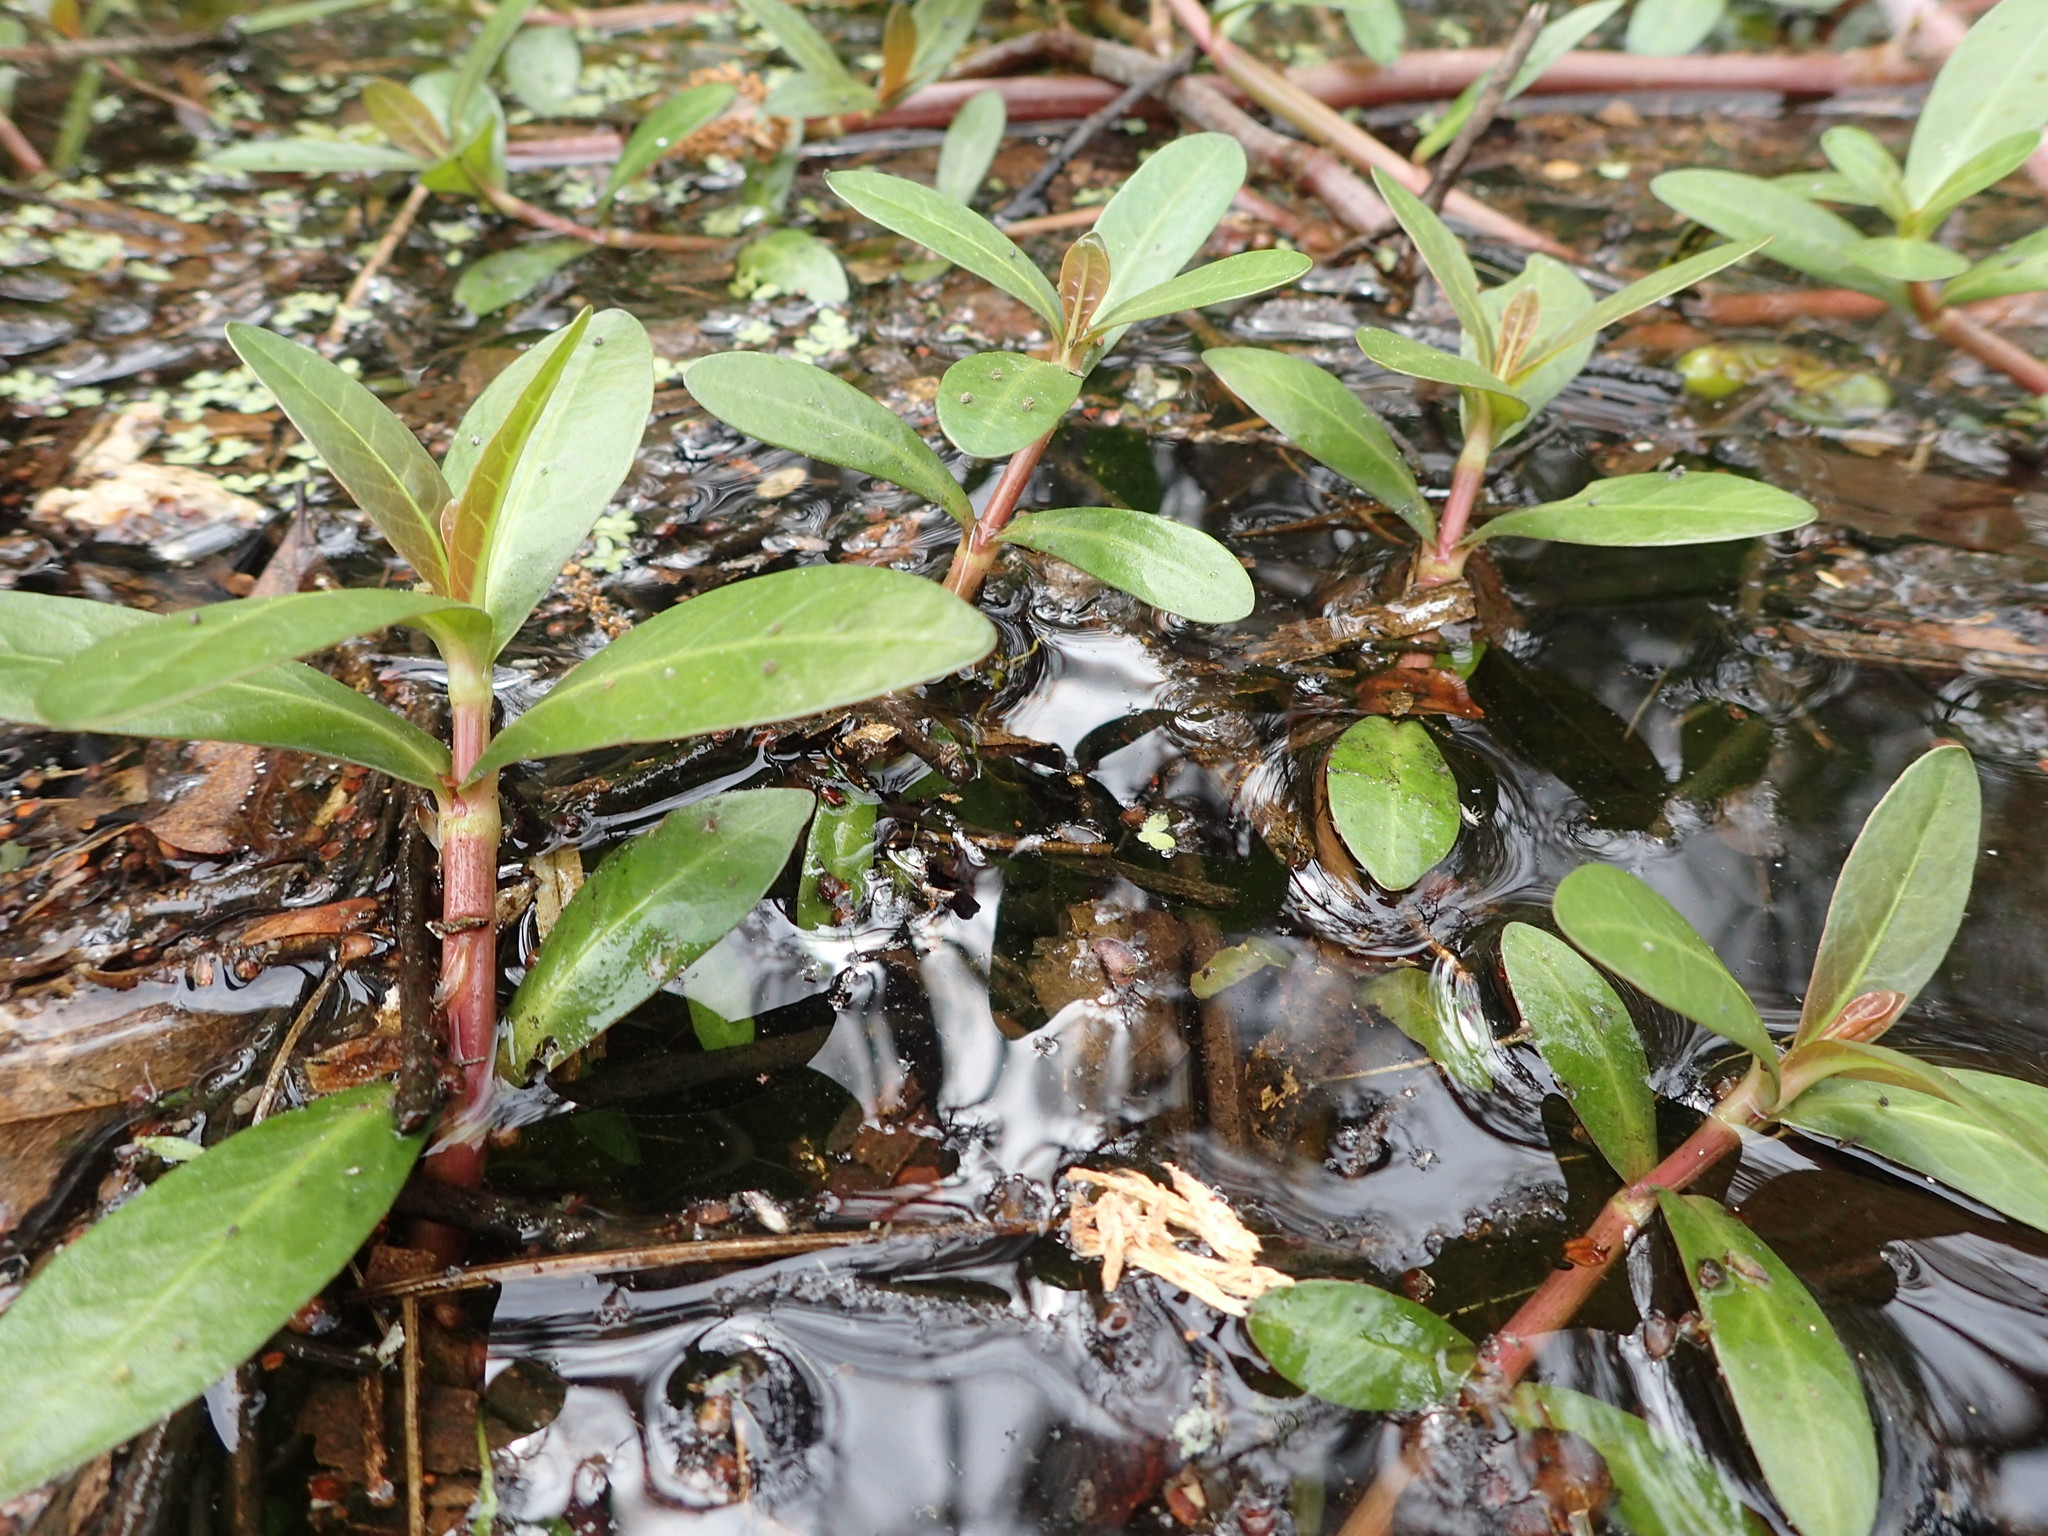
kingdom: Plantae
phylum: Tracheophyta
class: Magnoliopsida
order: Caryophyllales
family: Amaranthaceae
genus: Alternanthera
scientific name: Alternanthera philoxeroides
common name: Alligatorweed
